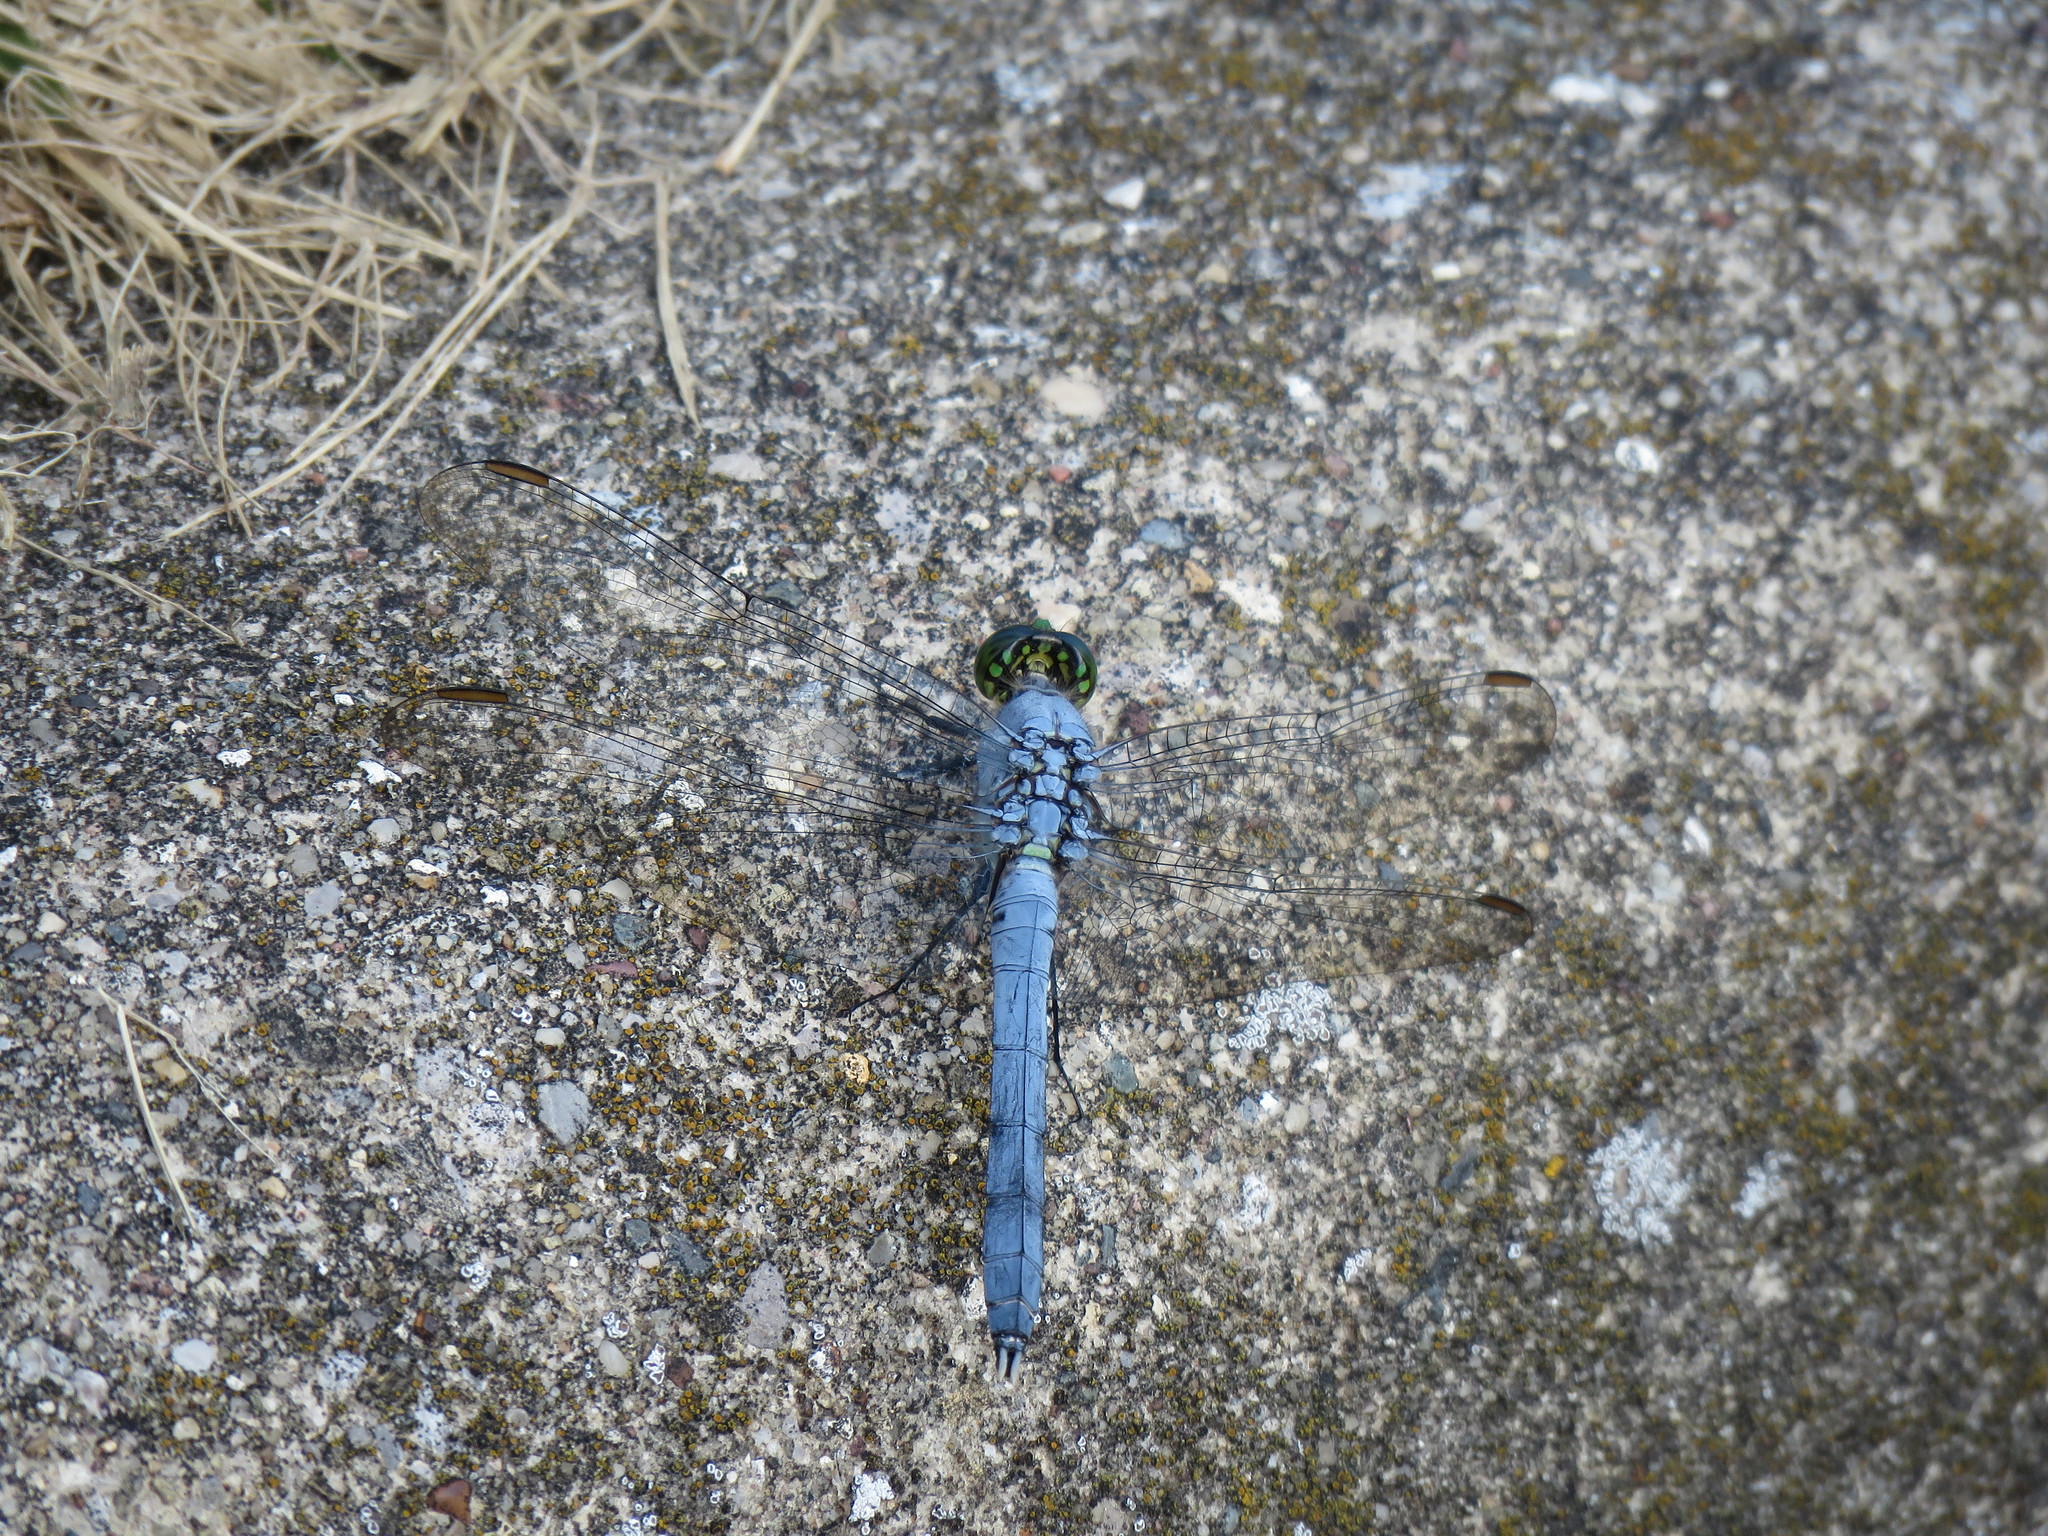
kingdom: Animalia
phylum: Arthropoda
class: Insecta
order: Odonata
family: Libellulidae
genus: Erythemis
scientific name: Erythemis simplicicollis
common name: Eastern pondhawk
